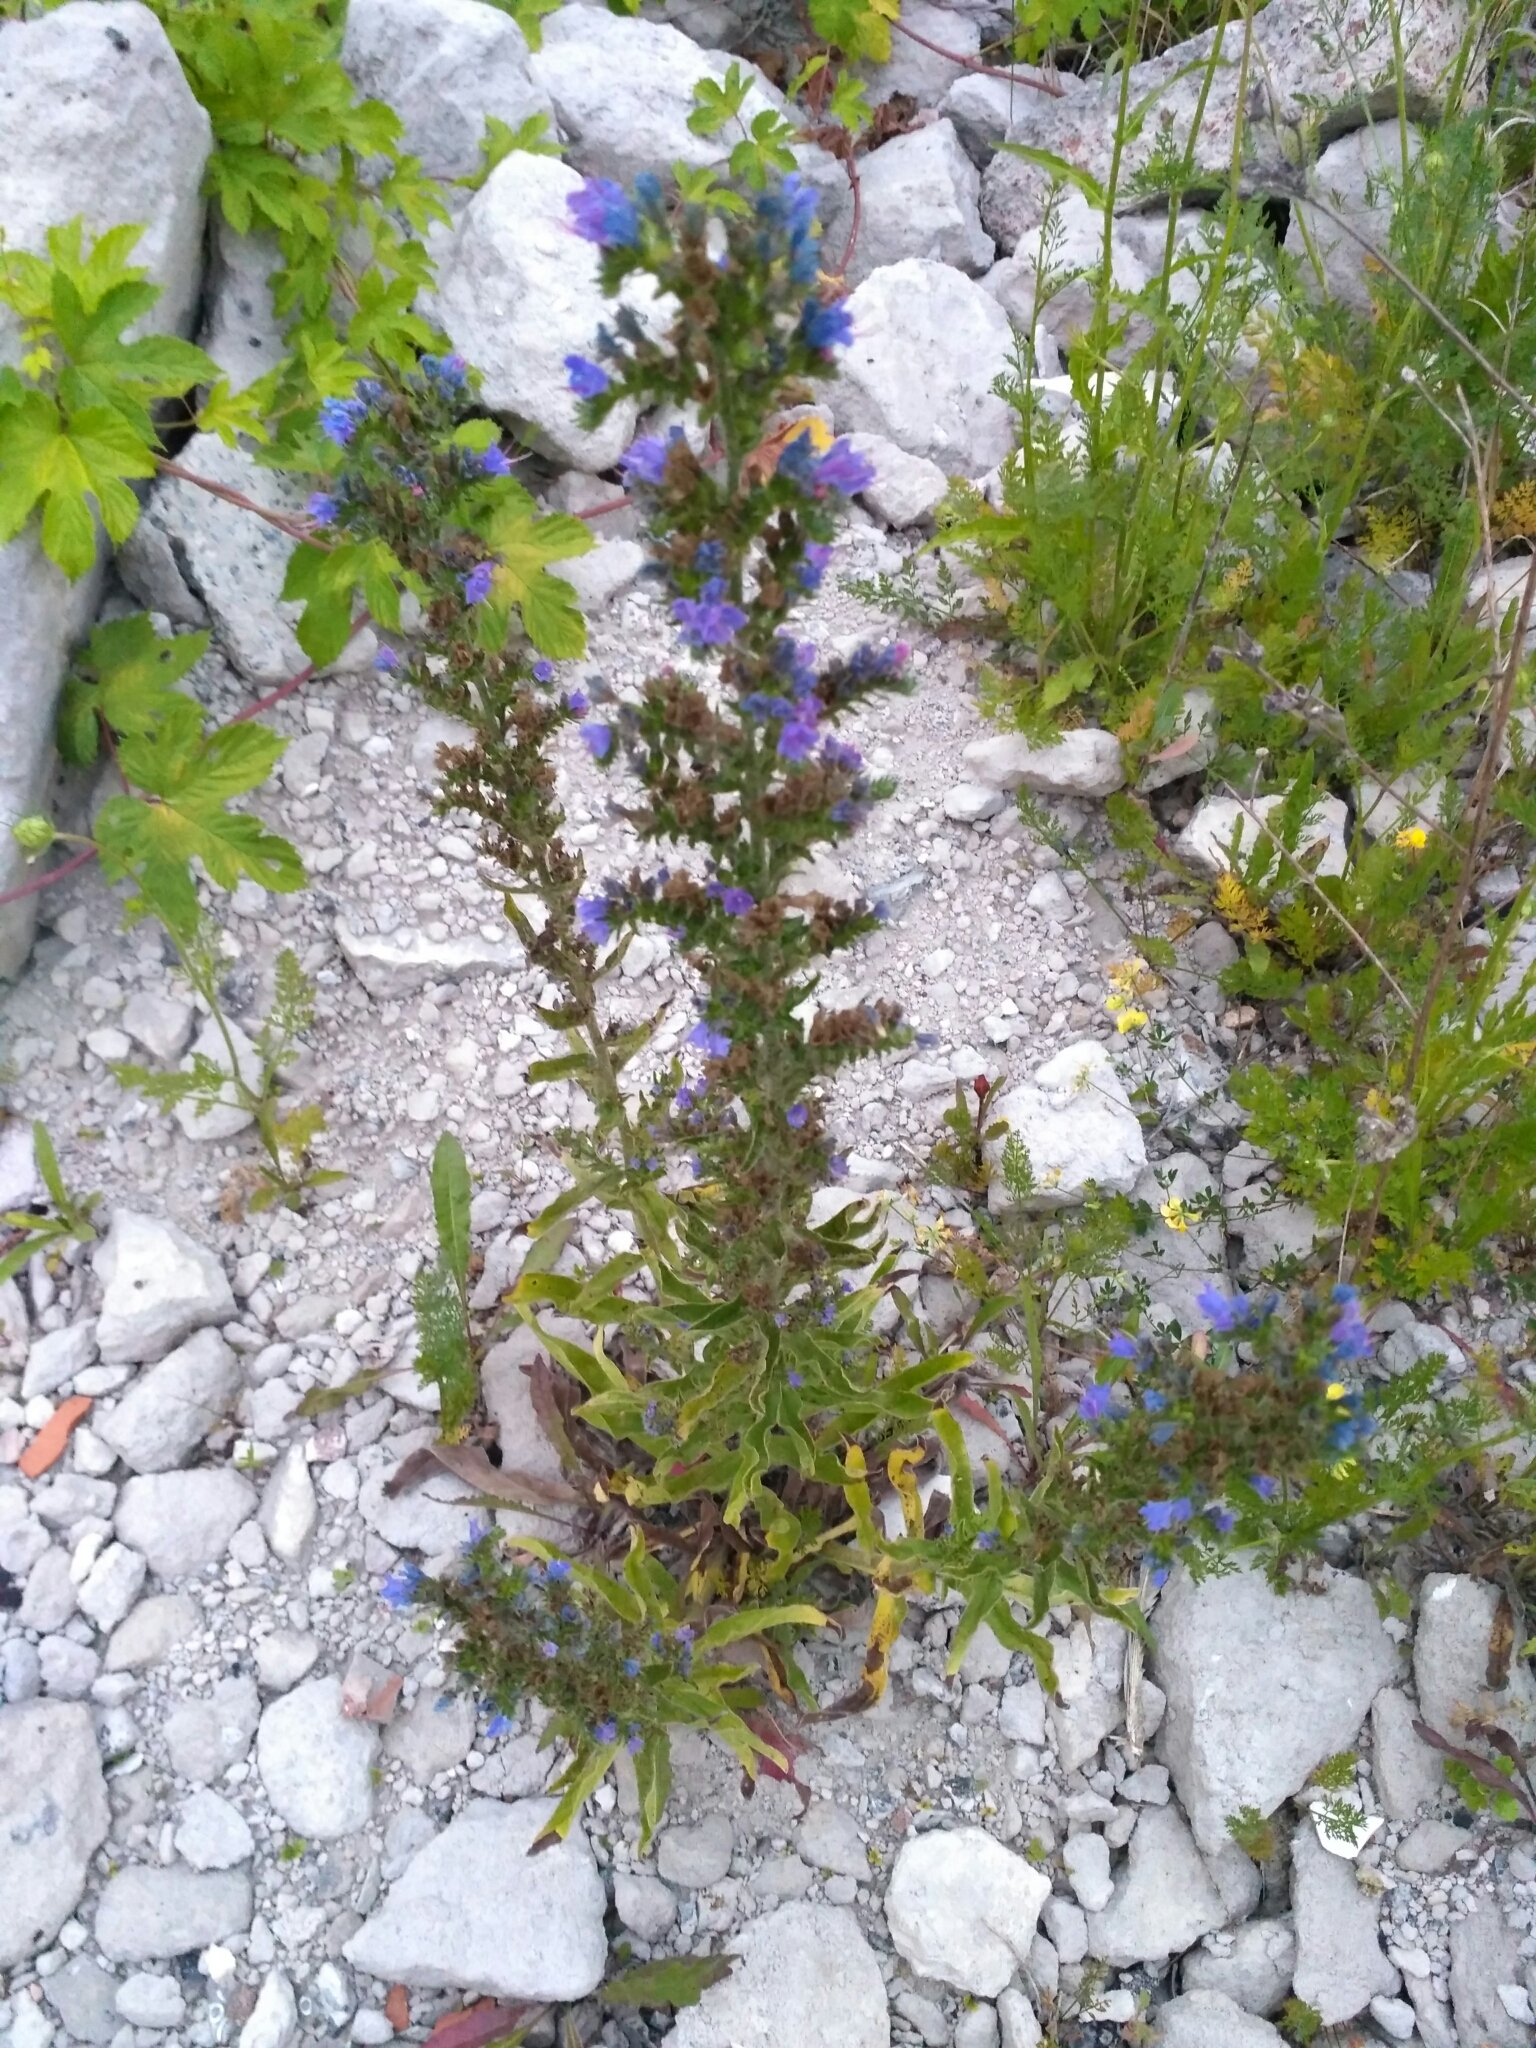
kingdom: Plantae
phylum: Tracheophyta
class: Magnoliopsida
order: Boraginales
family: Boraginaceae
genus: Echium
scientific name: Echium vulgare
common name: Common viper's bugloss
